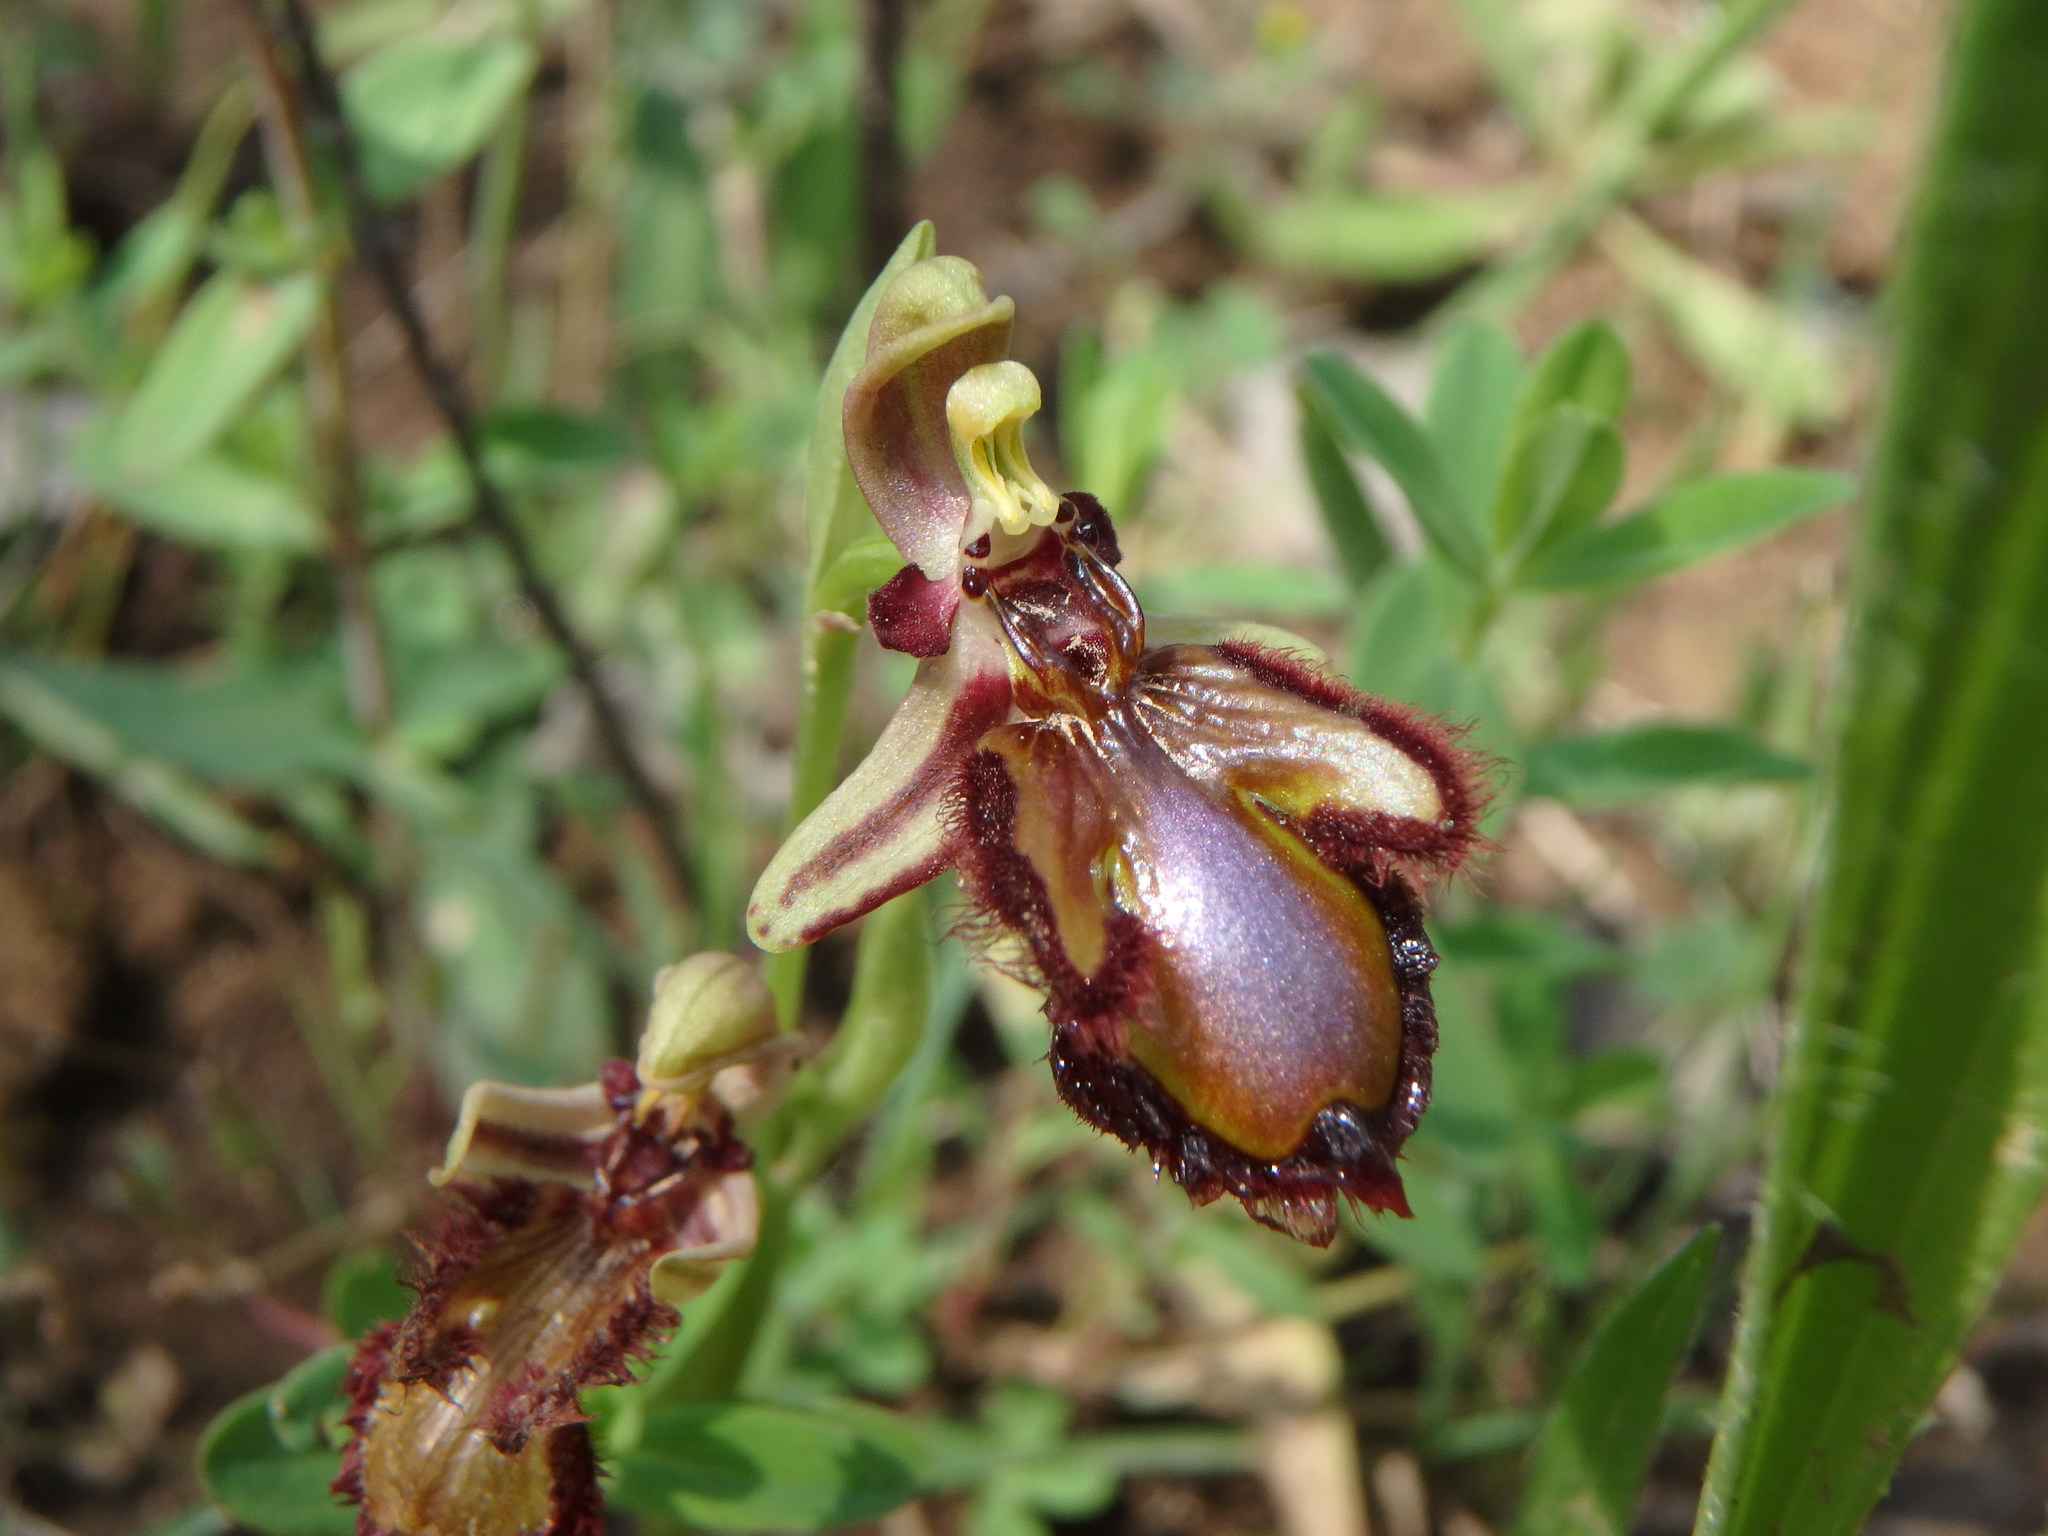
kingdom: Plantae
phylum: Tracheophyta
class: Liliopsida
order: Asparagales
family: Orchidaceae
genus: Ophrys
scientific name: Ophrys speculum
